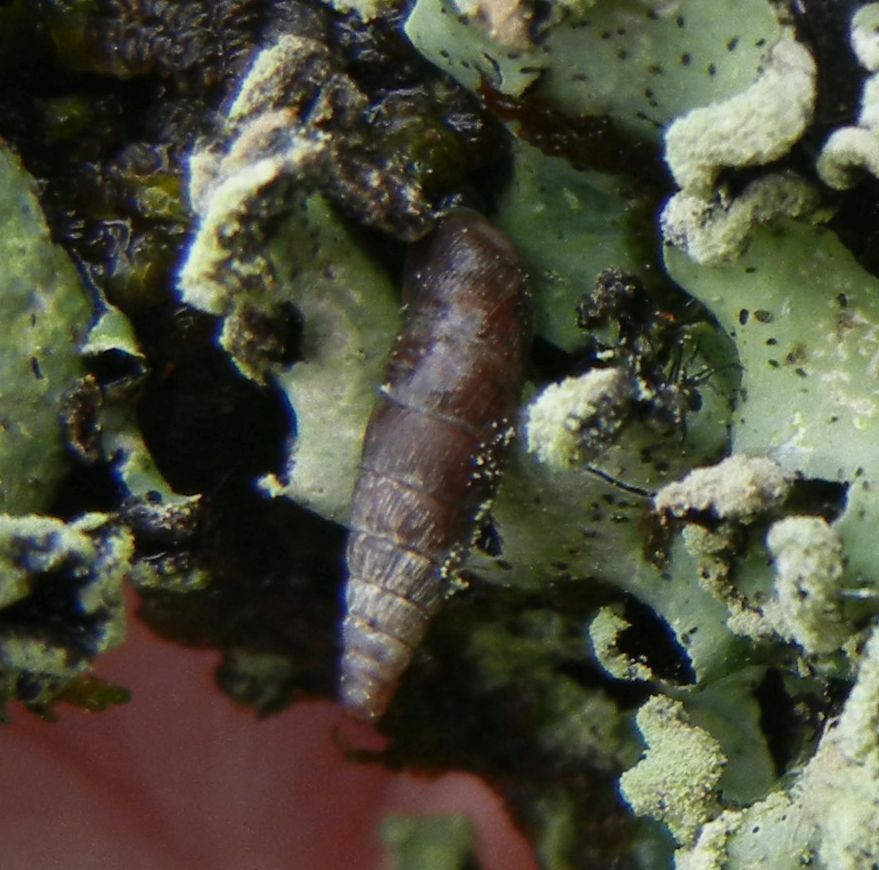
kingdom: Animalia
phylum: Mollusca
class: Gastropoda
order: Stylommatophora
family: Clausiliidae
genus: Clausilia
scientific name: Clausilia bidentata
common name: Two-toothed door snail
